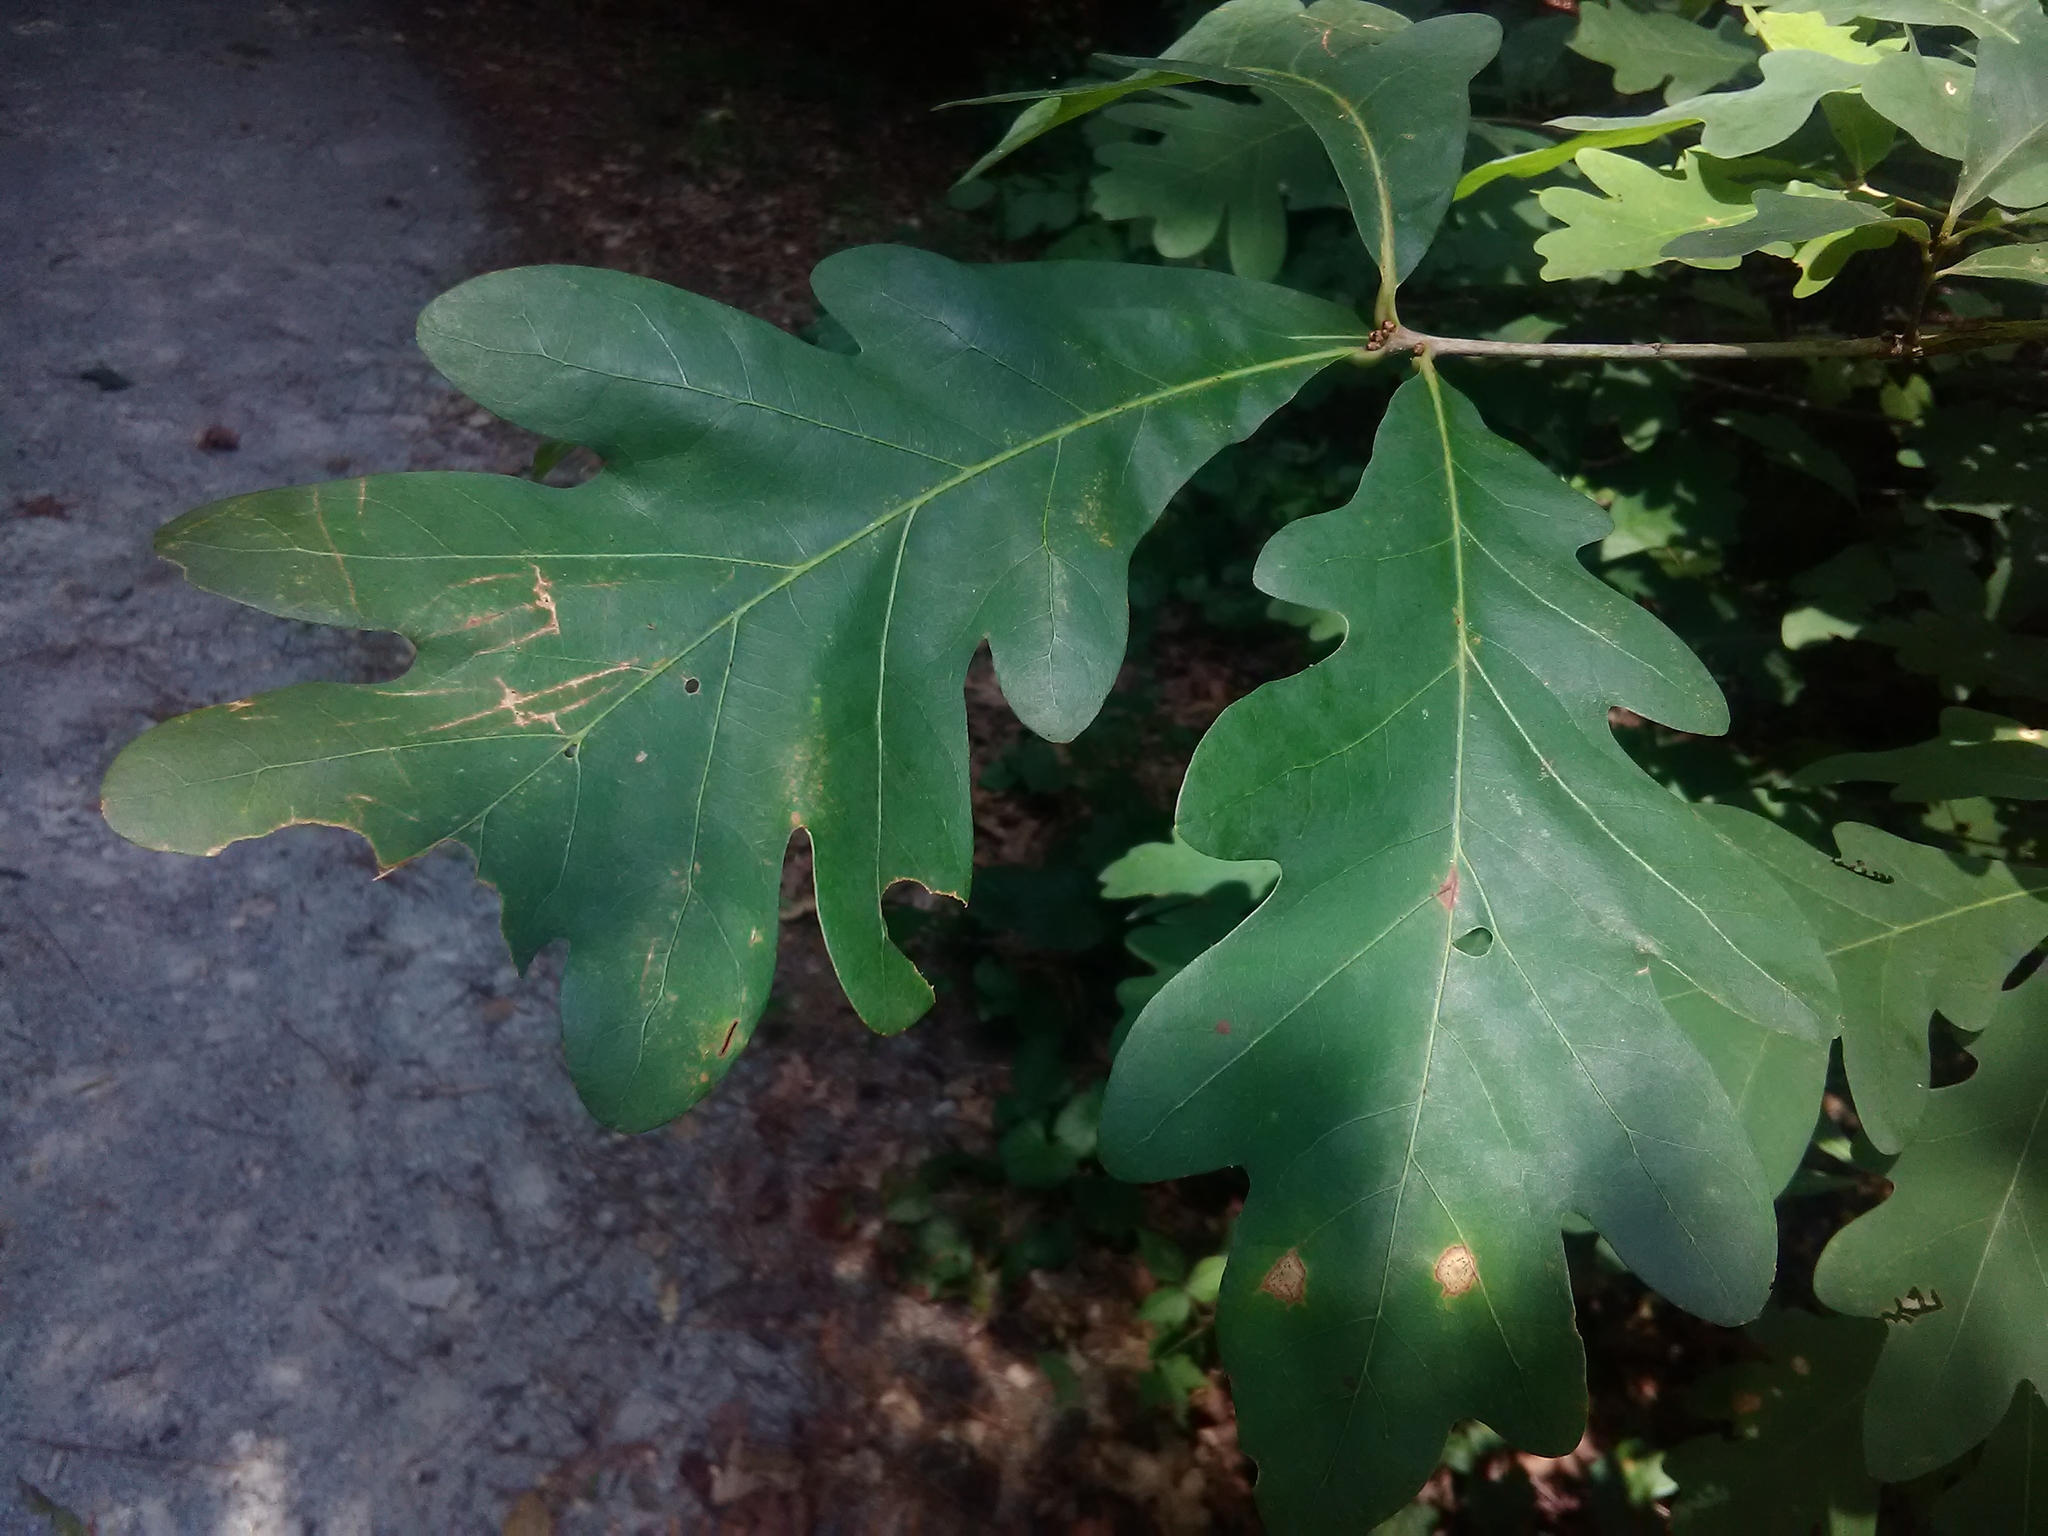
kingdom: Plantae
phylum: Tracheophyta
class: Magnoliopsida
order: Fagales
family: Fagaceae
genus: Quercus
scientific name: Quercus alba
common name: White oak
